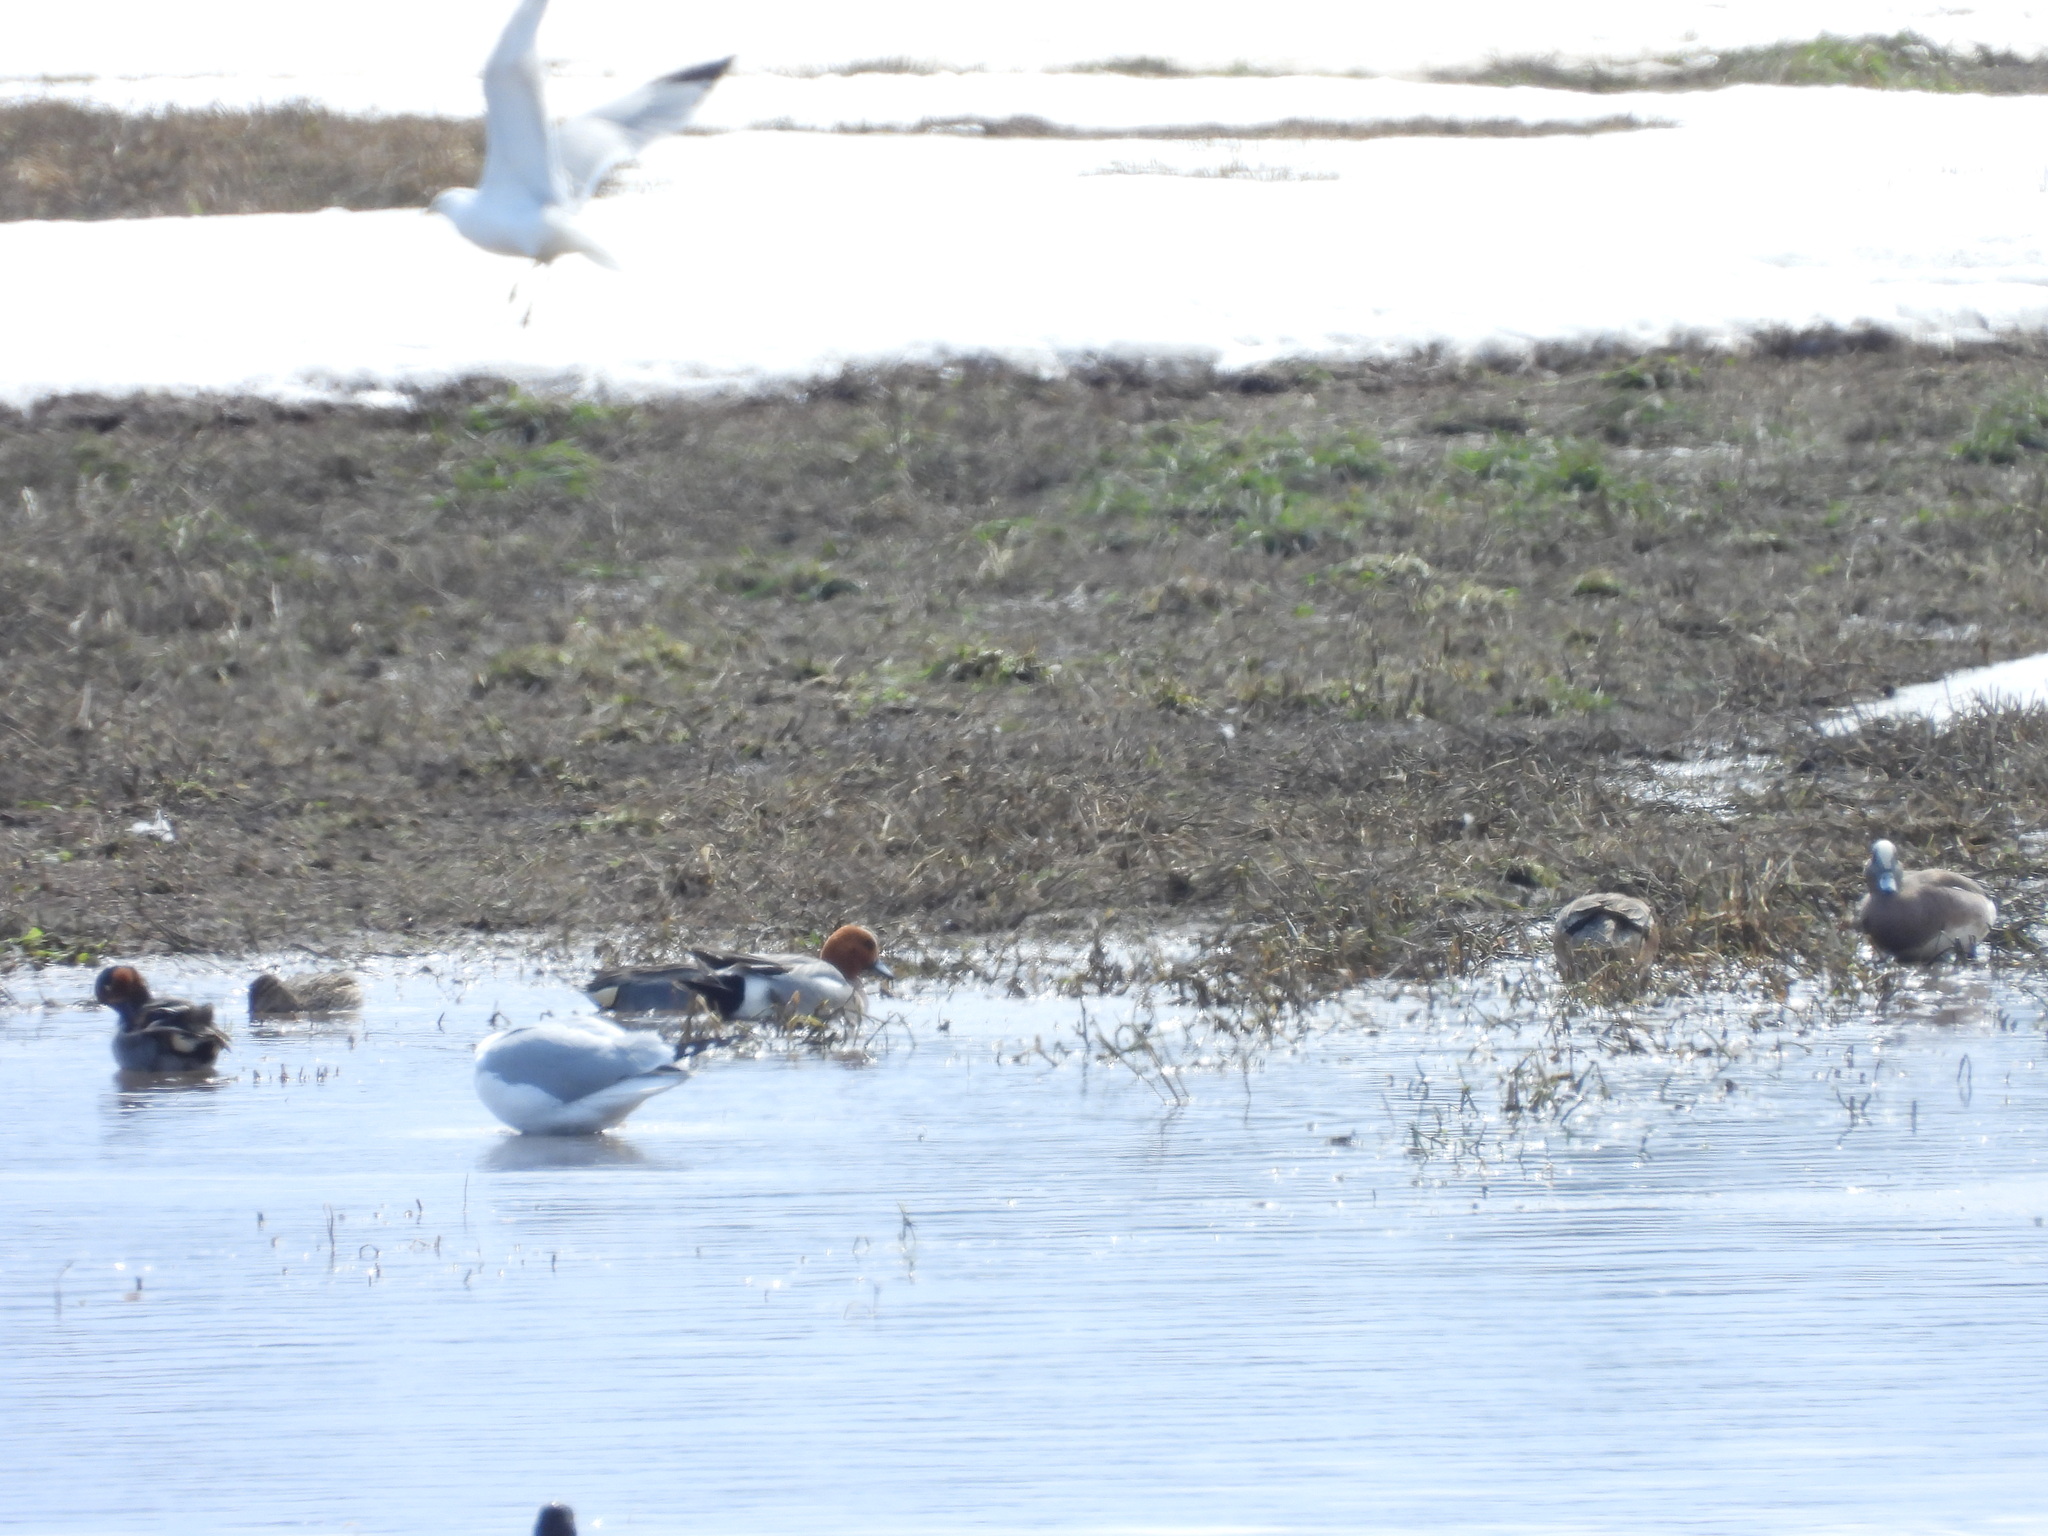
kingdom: Animalia
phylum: Chordata
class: Aves
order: Anseriformes
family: Anatidae
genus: Mareca
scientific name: Mareca penelope
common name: Eurasian wigeon
